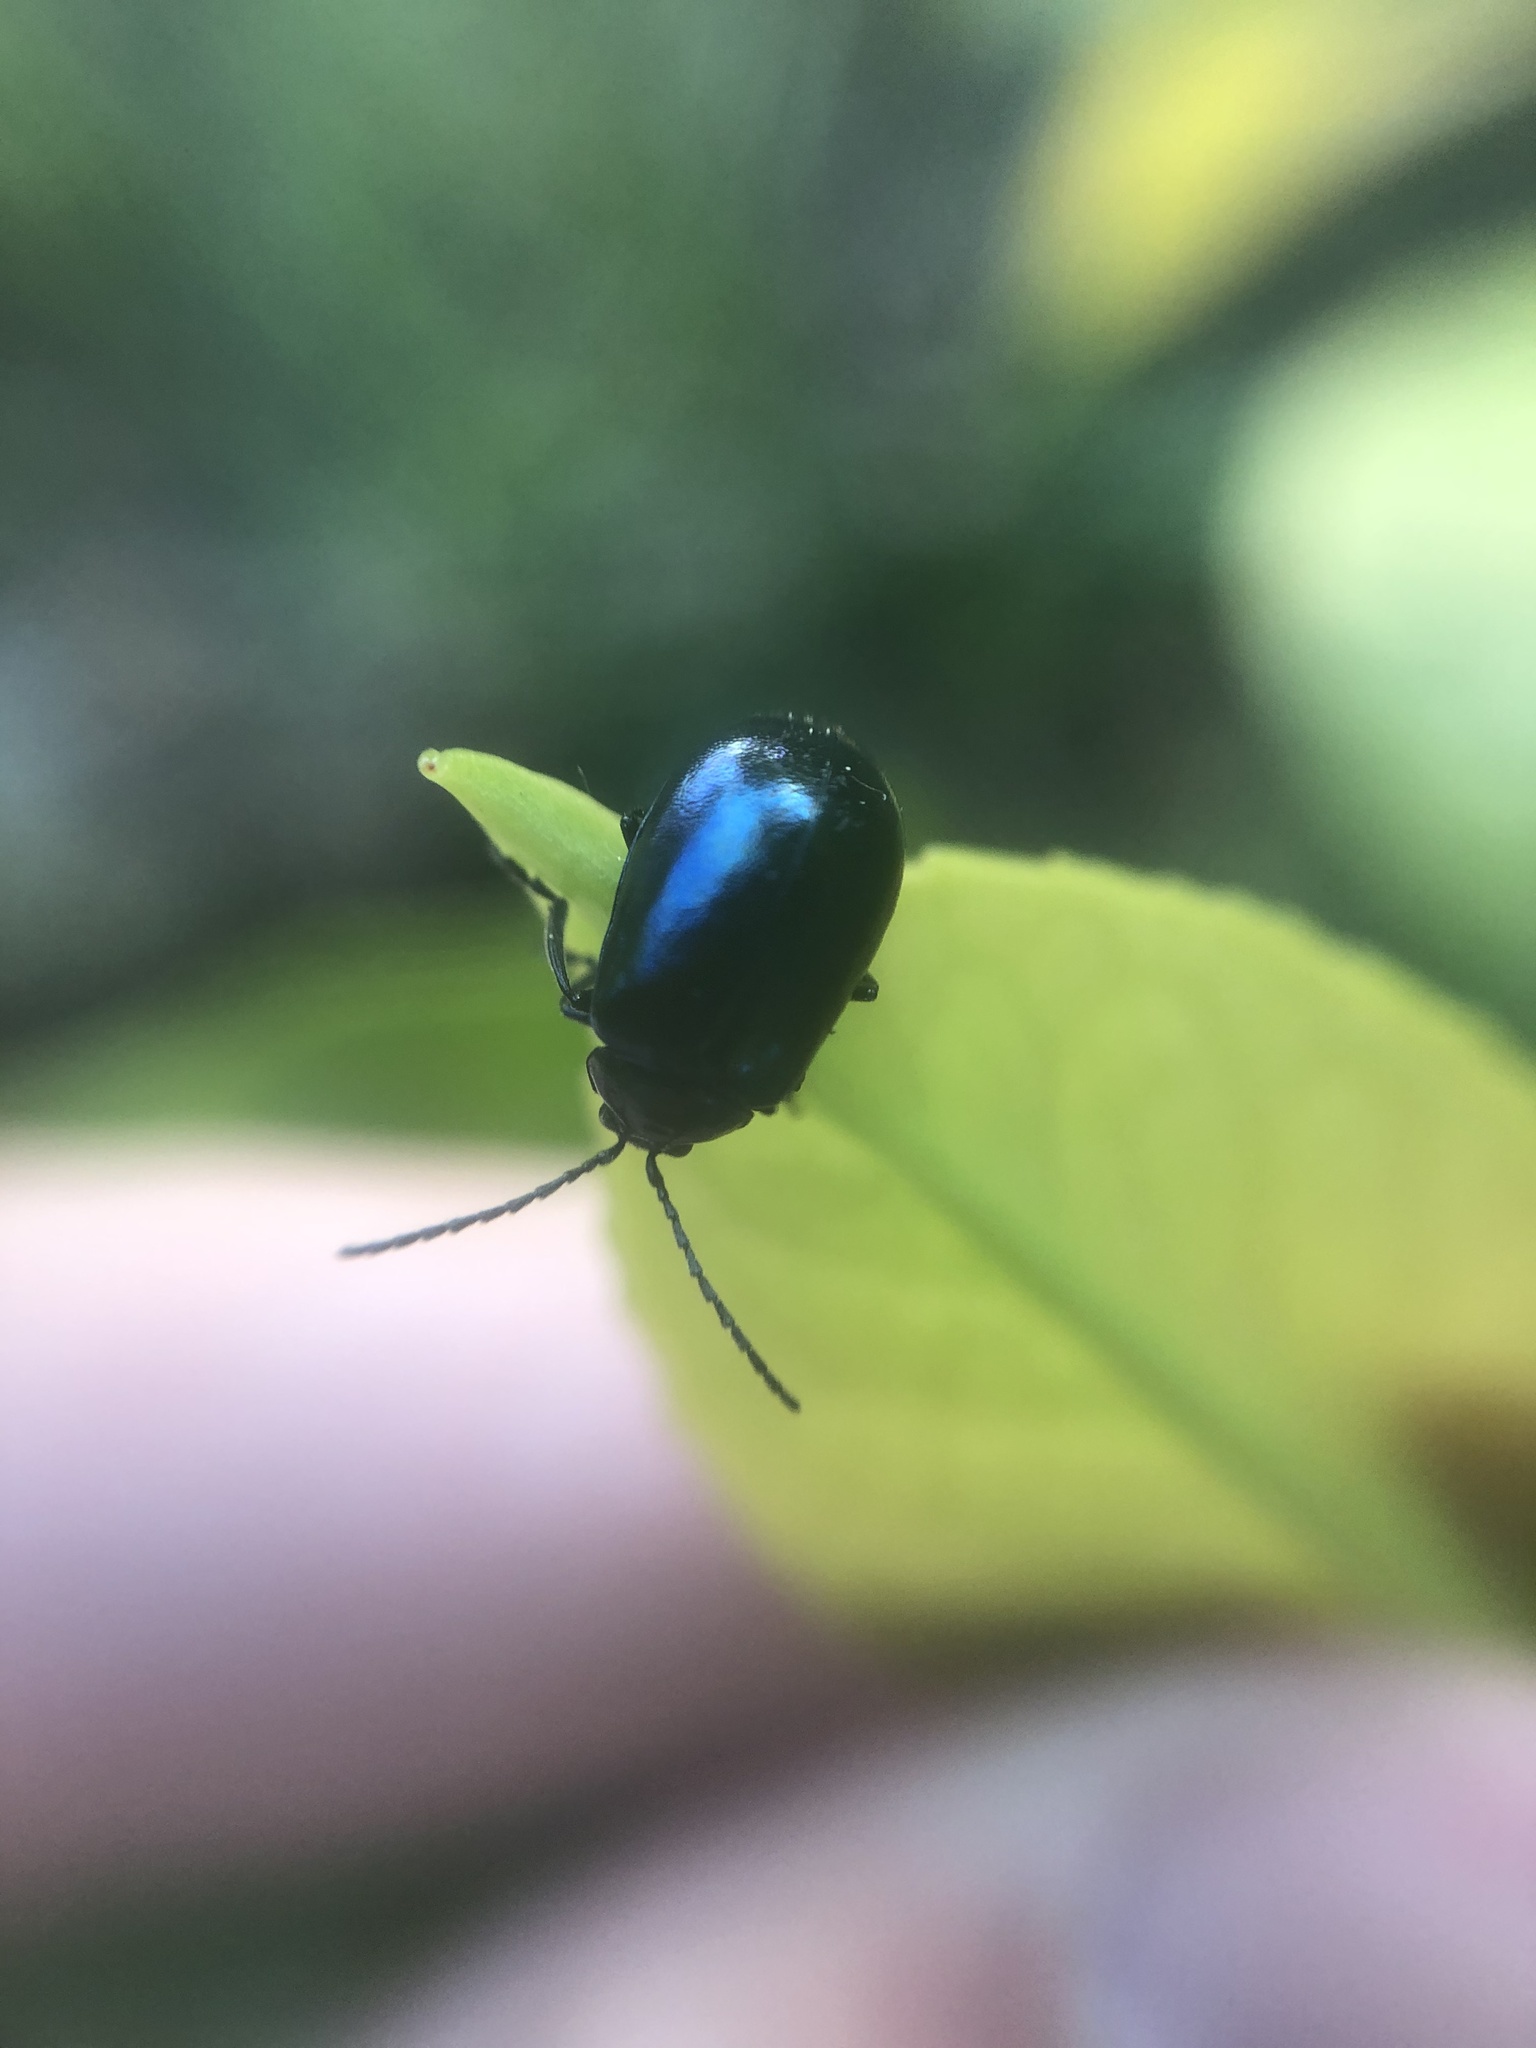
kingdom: Animalia
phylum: Arthropoda
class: Insecta
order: Coleoptera
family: Chrysomelidae
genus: Agelastica
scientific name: Agelastica alni
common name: Alder leaf beetle
